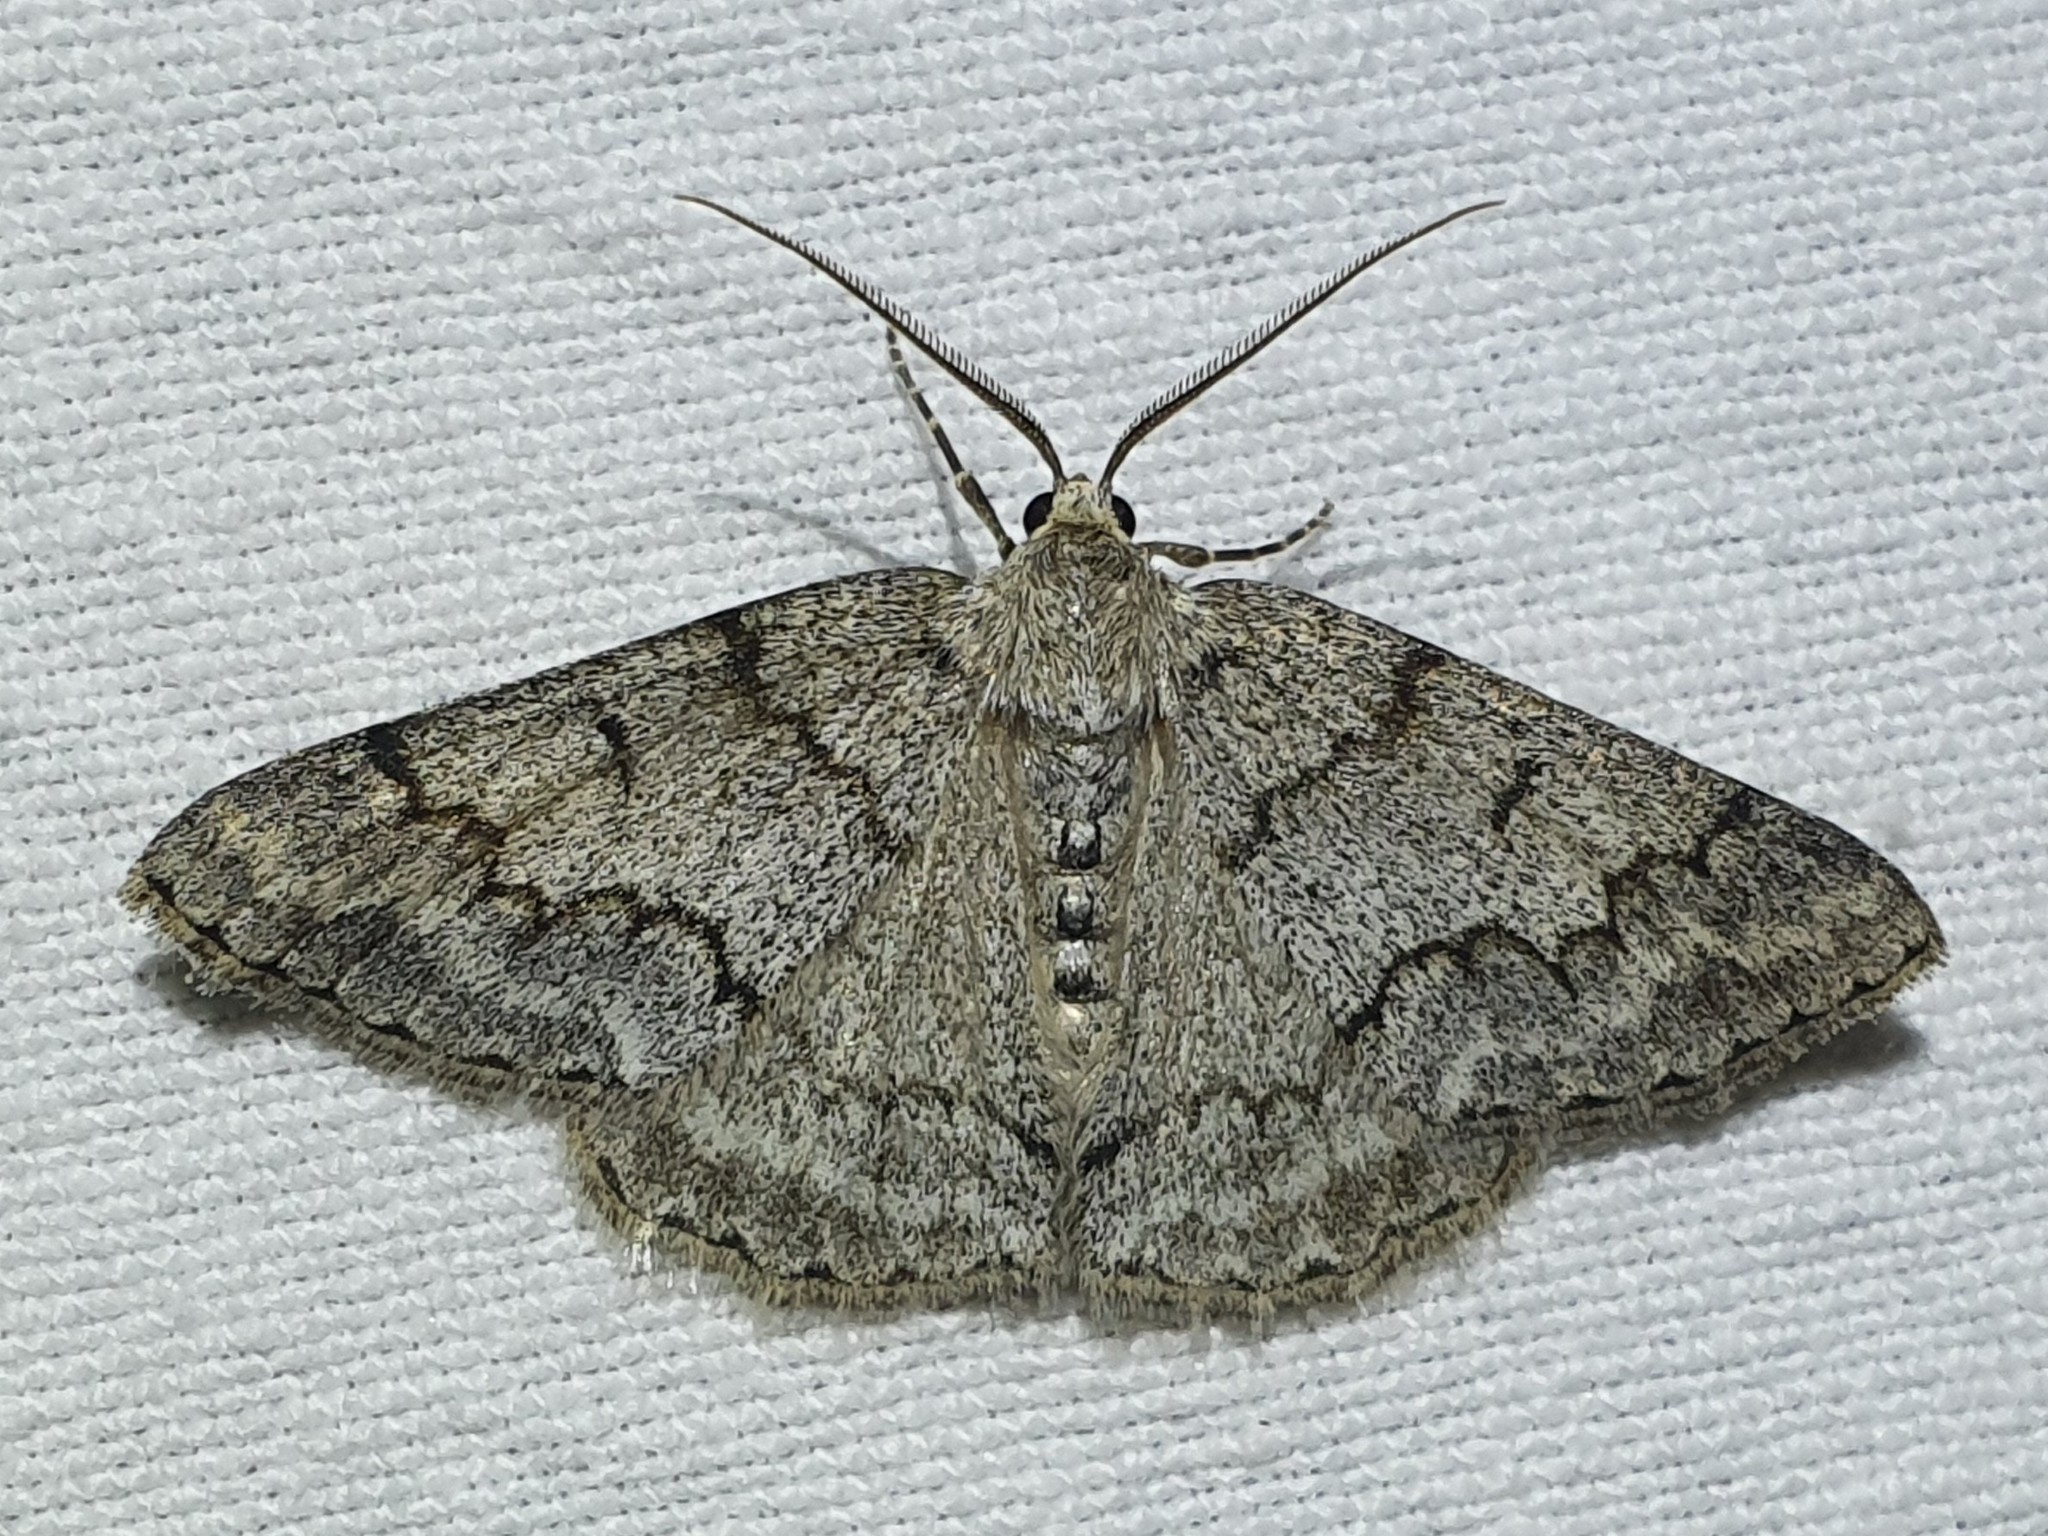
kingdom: Animalia
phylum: Arthropoda
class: Insecta
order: Lepidoptera
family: Geometridae
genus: Pseudoterpna
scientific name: Pseudoterpna coronillaria
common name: Jersey emerald
